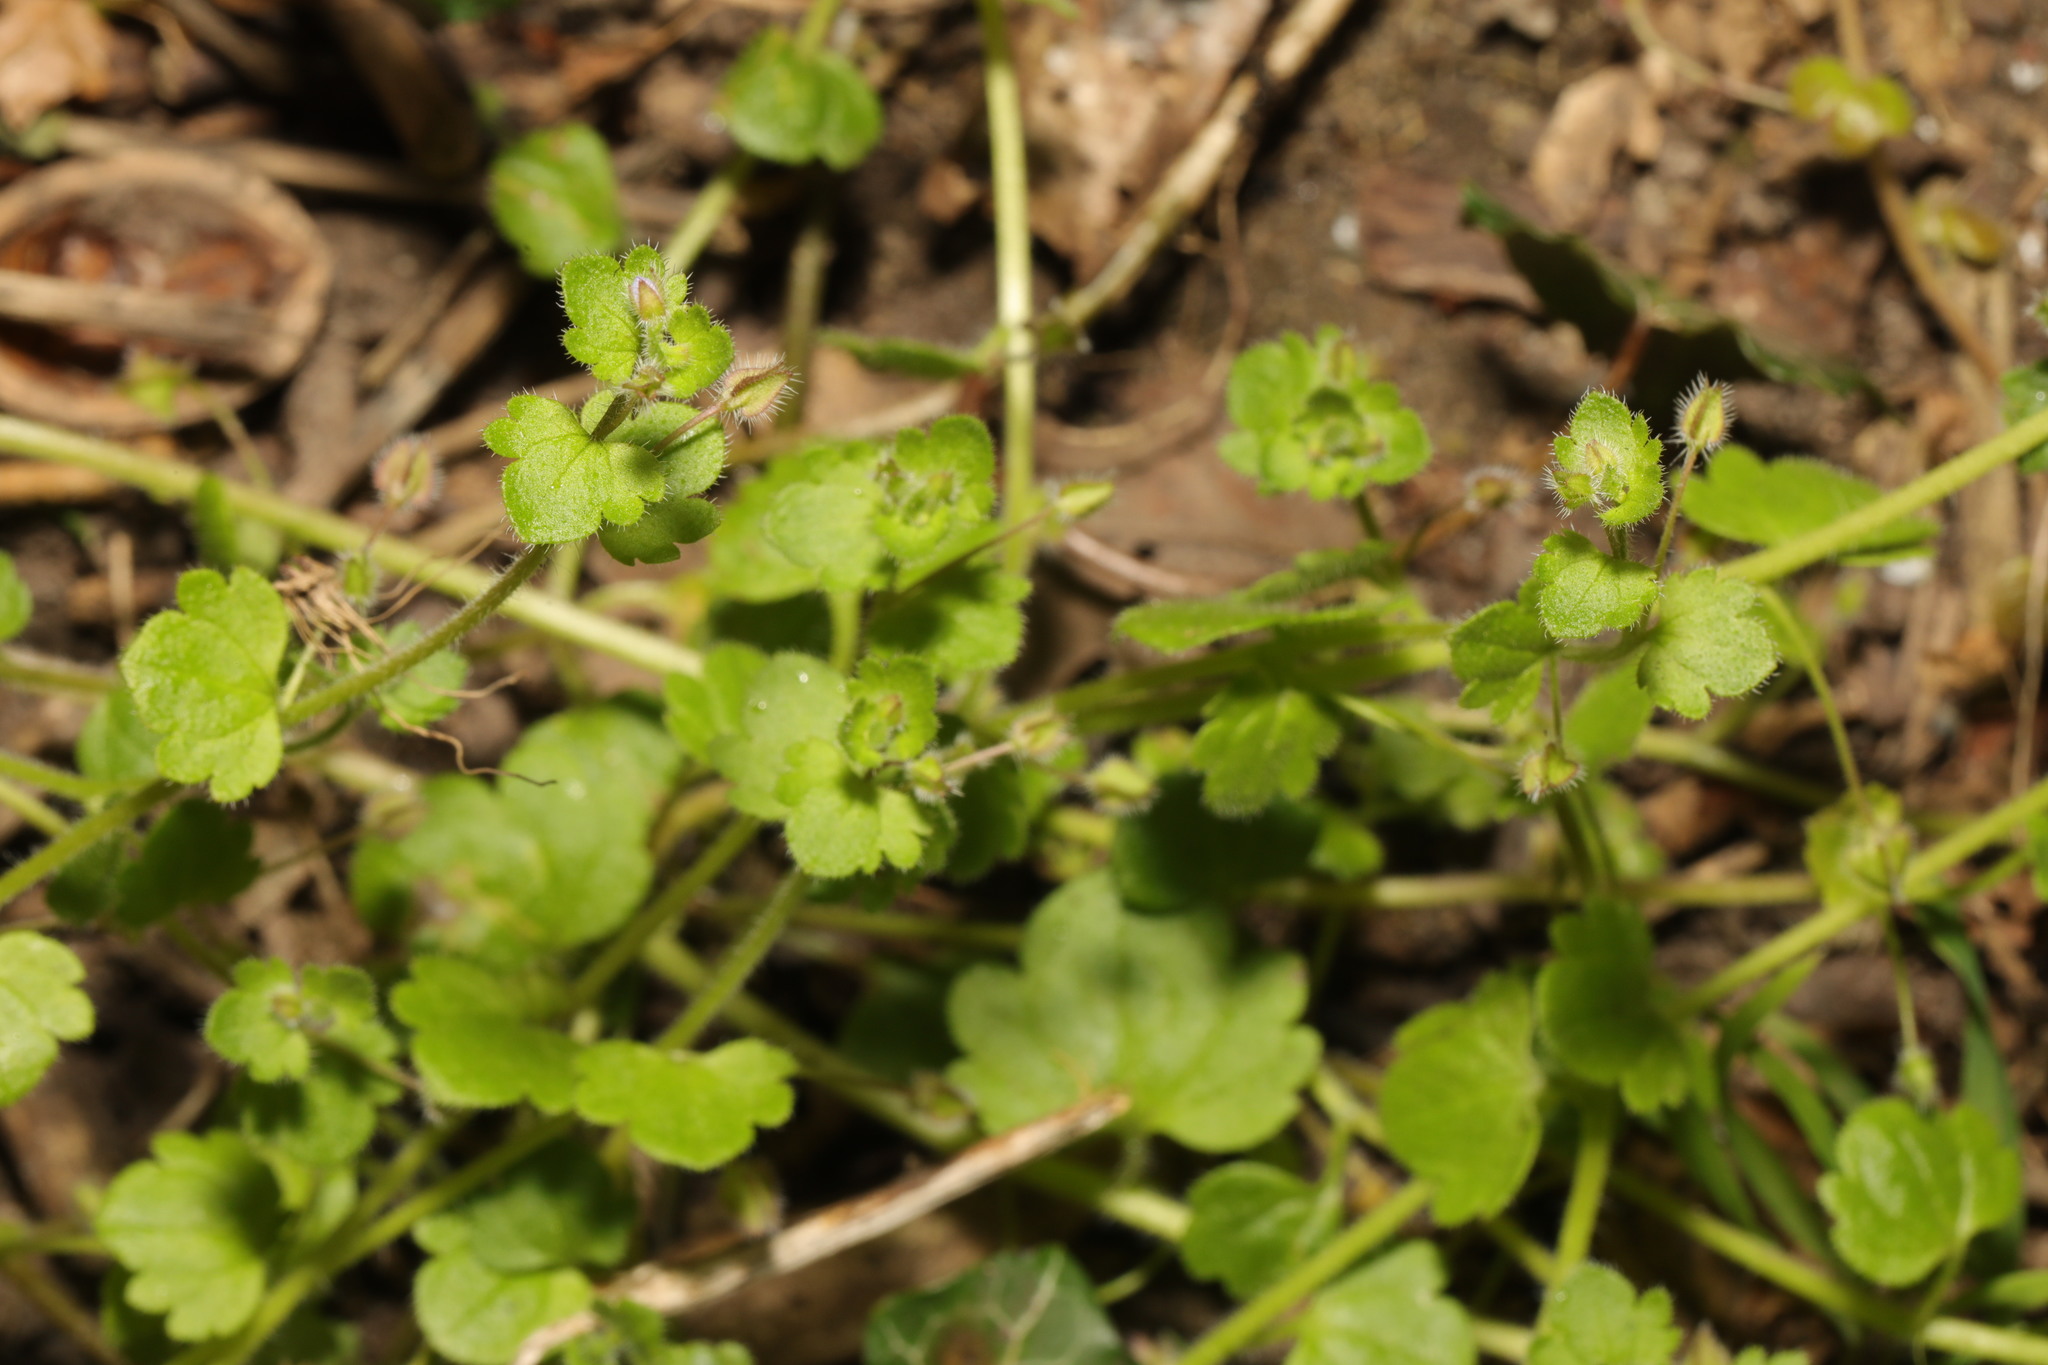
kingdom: Plantae
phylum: Tracheophyta
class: Magnoliopsida
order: Lamiales
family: Plantaginaceae
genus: Veronica
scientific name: Veronica sublobata
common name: False ivy-leaved speedwell
